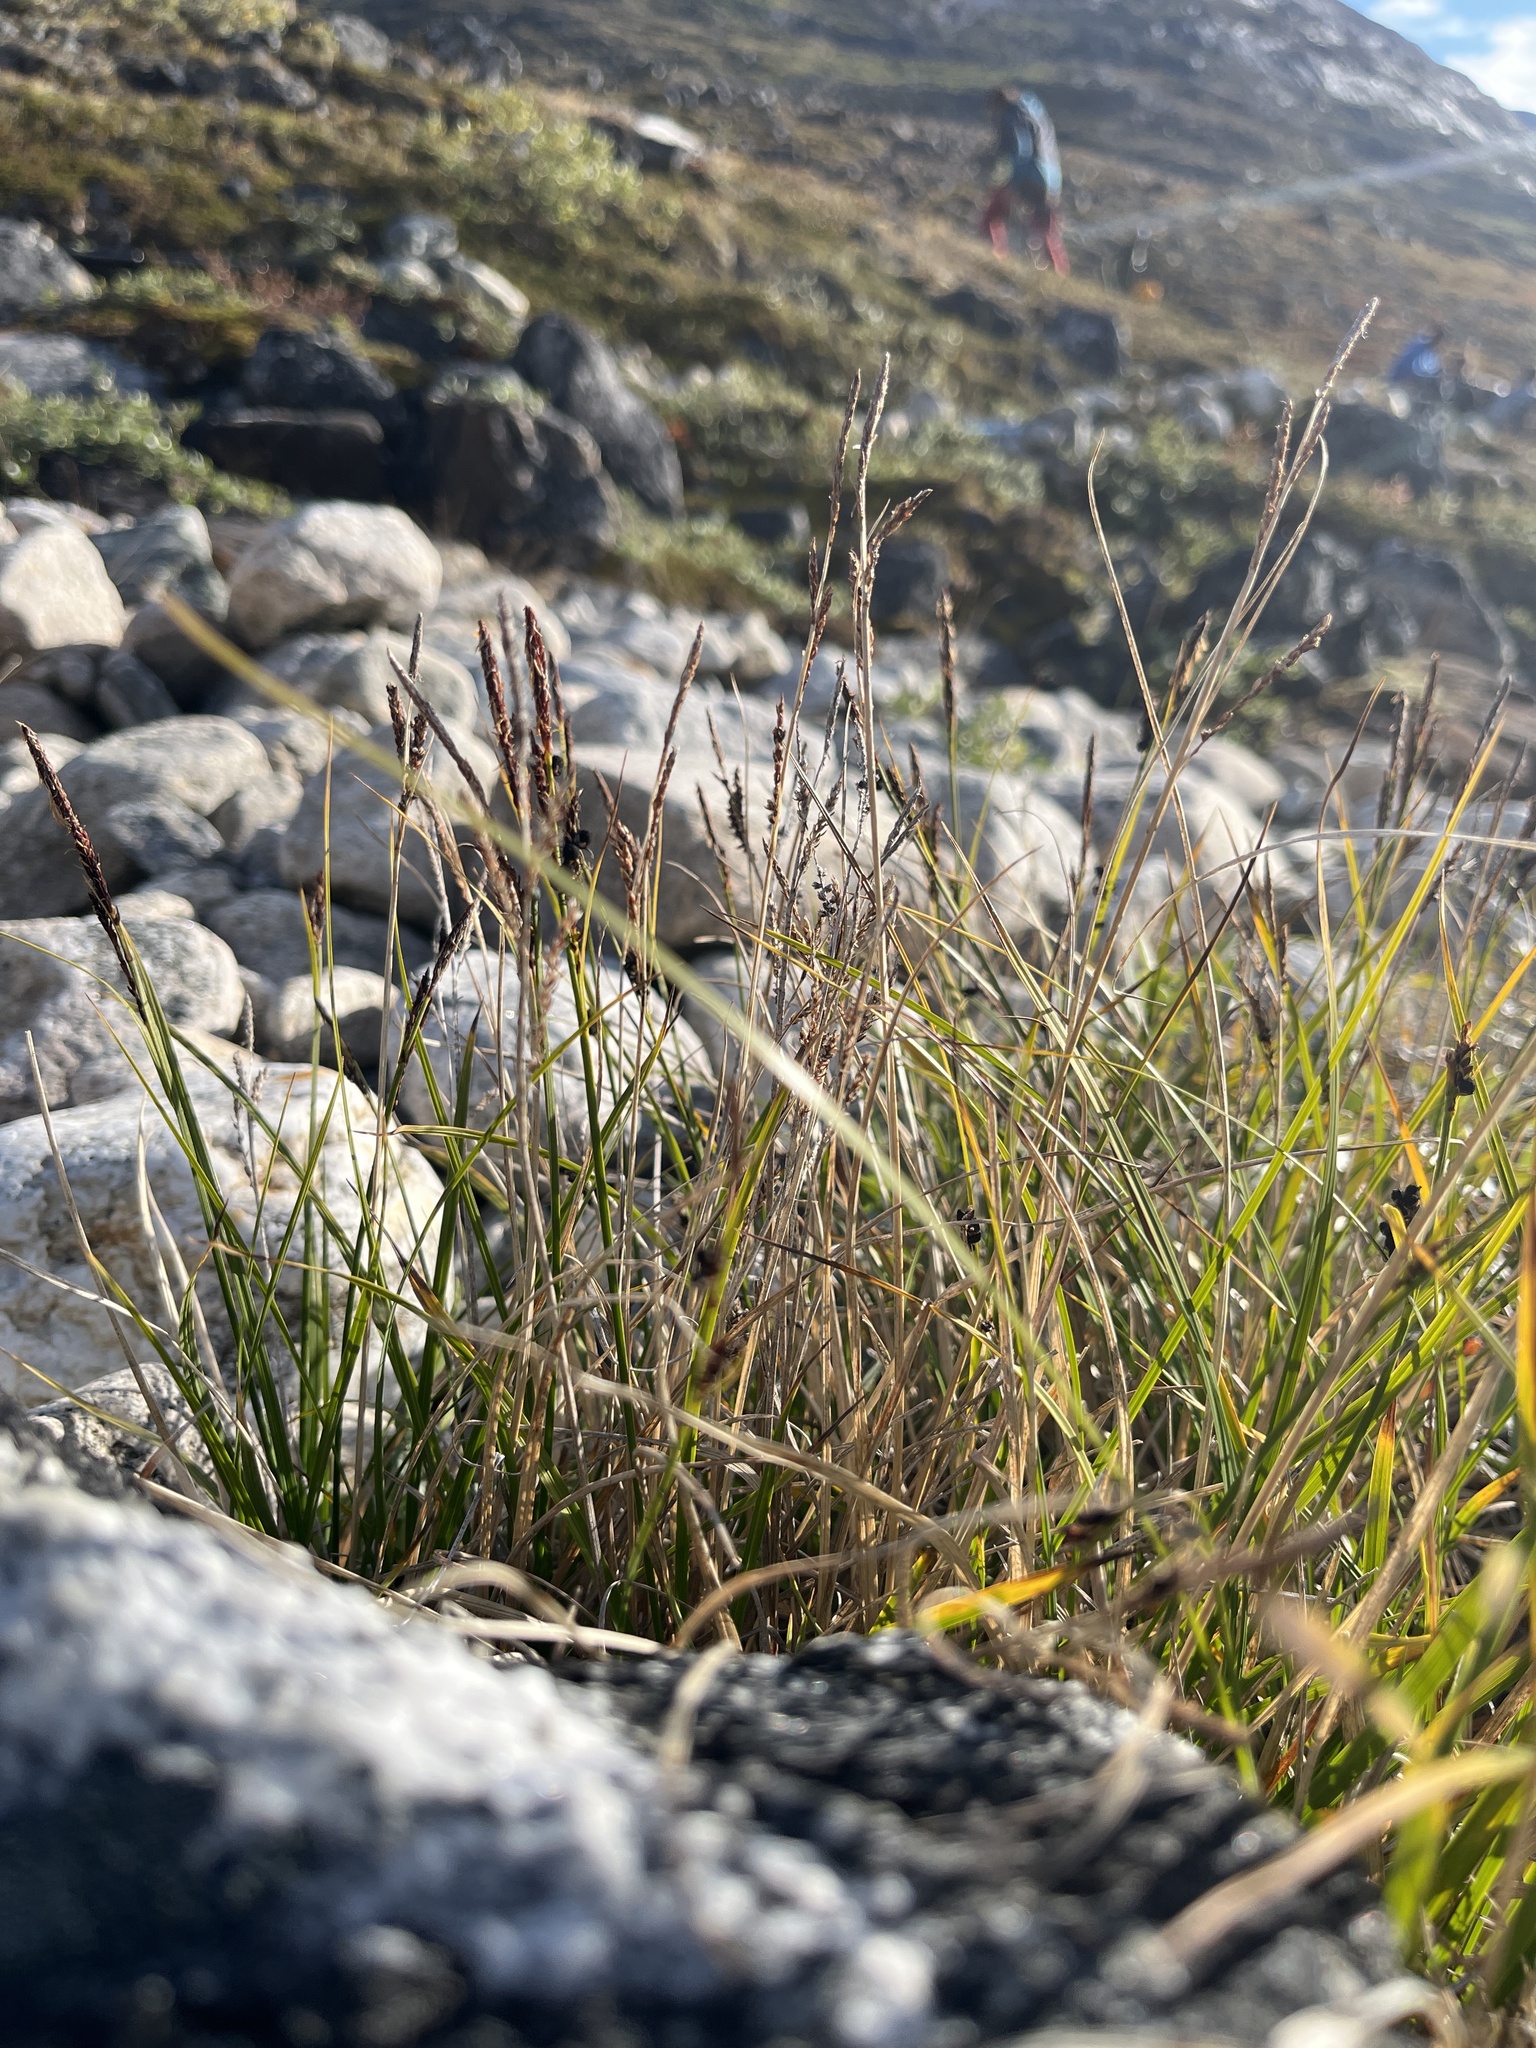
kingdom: Plantae
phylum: Tracheophyta
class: Liliopsida
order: Poales
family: Cyperaceae
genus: Carex
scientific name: Carex bigelowii
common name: Stiff sedge
